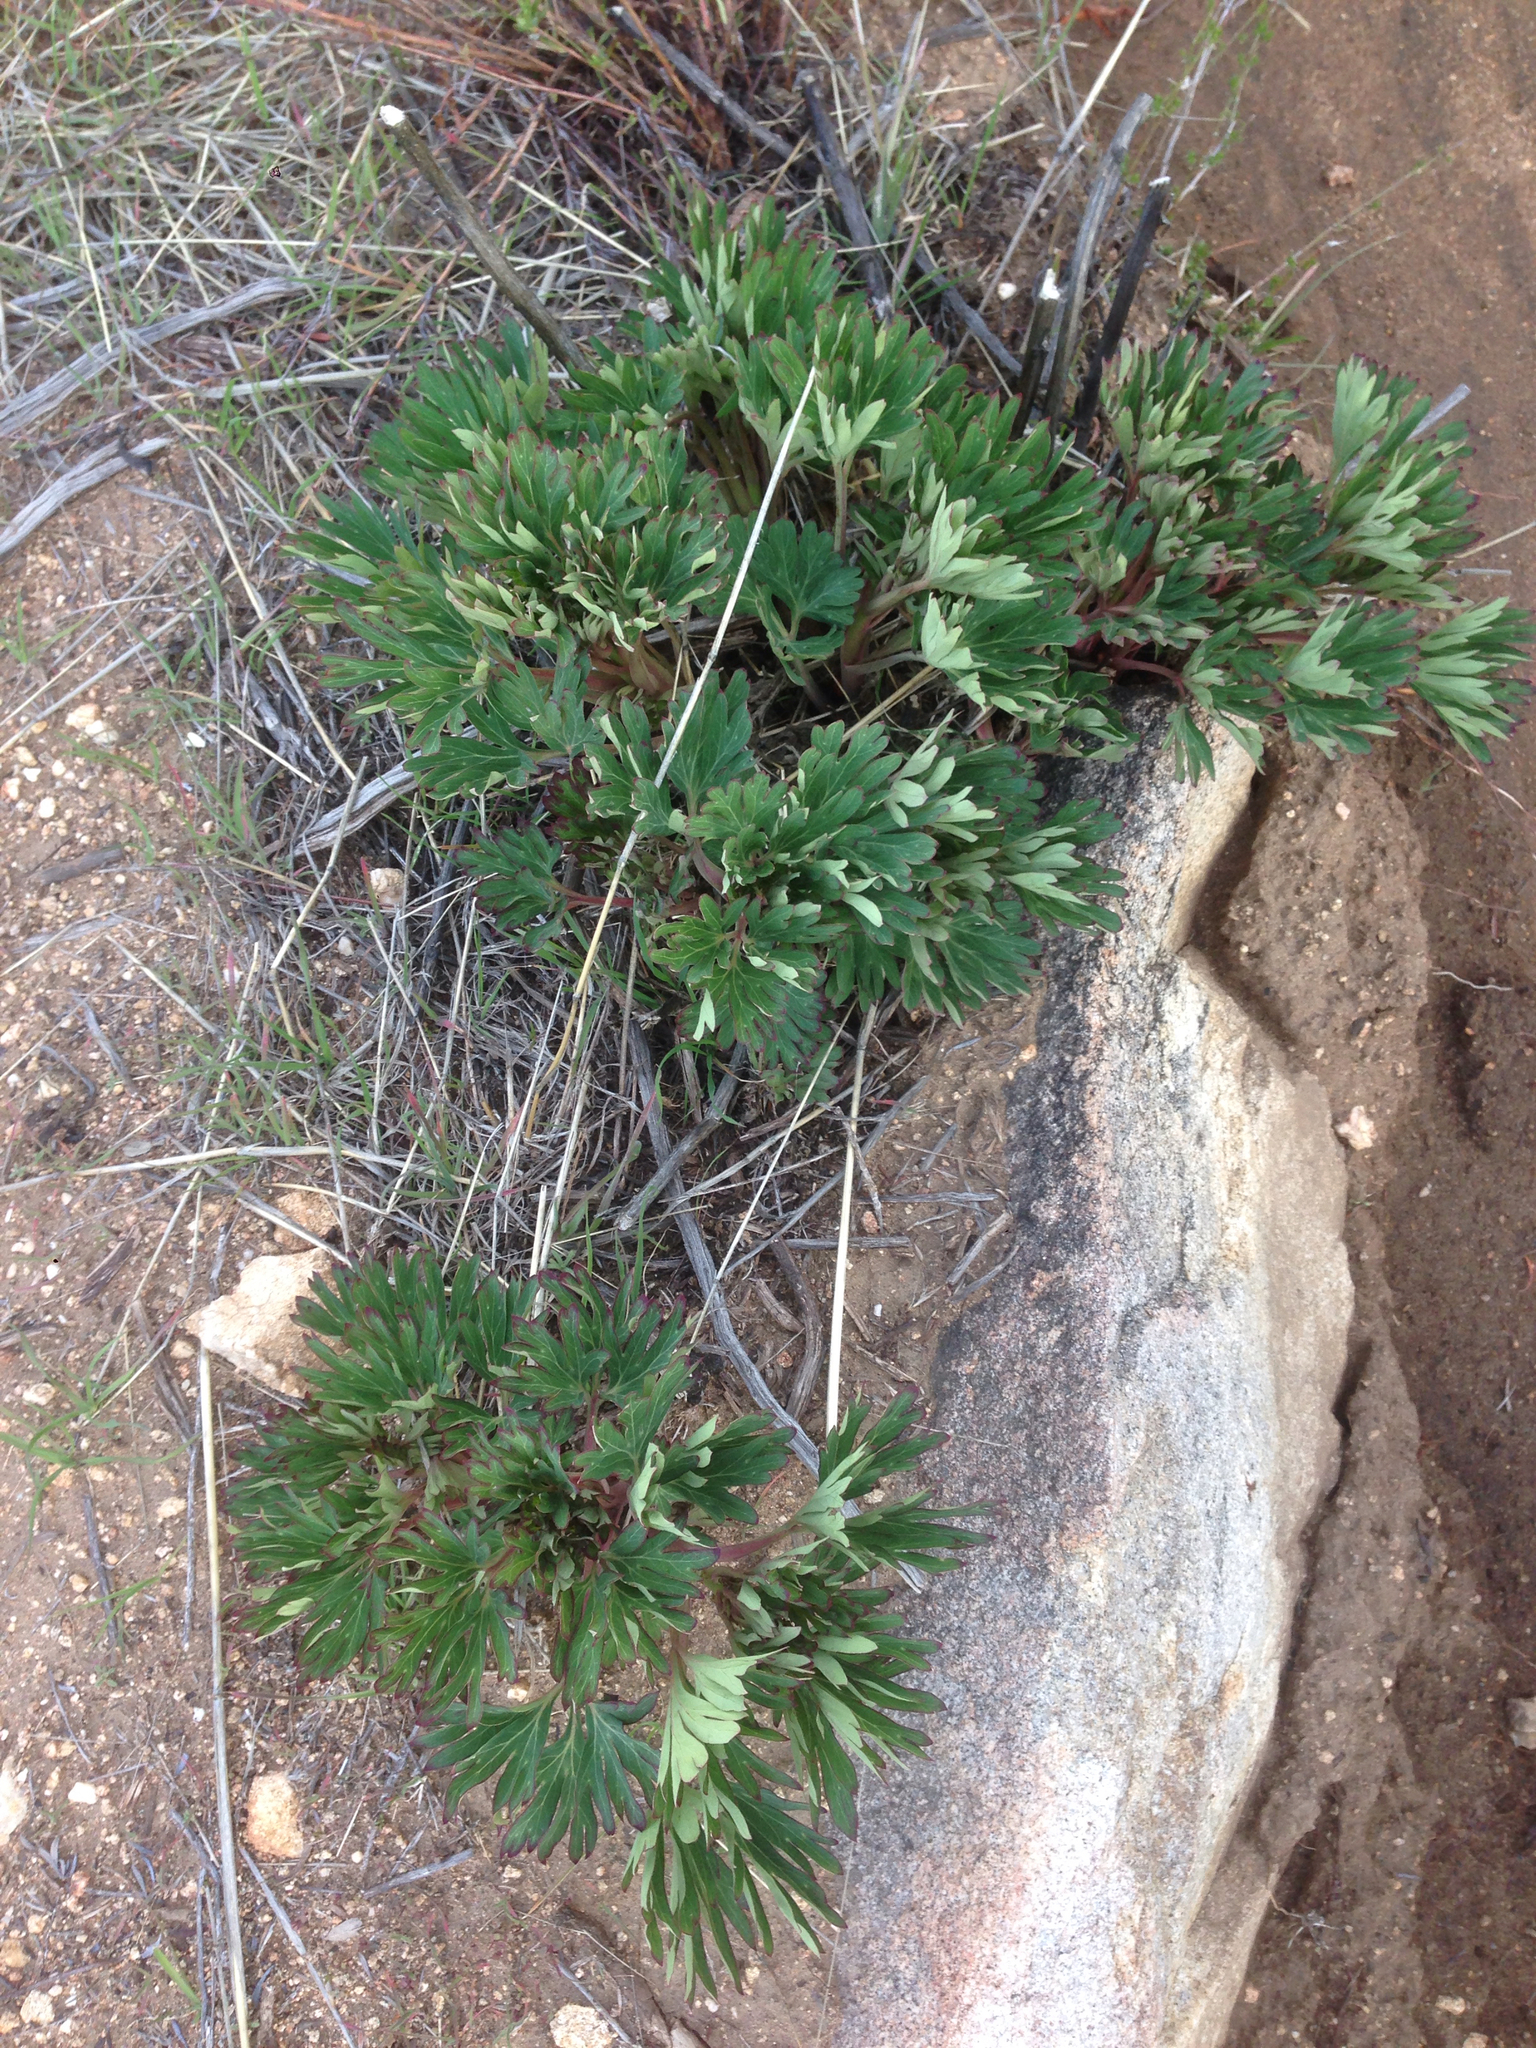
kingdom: Plantae
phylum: Tracheophyta
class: Magnoliopsida
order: Saxifragales
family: Paeoniaceae
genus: Paeonia
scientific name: Paeonia californica
